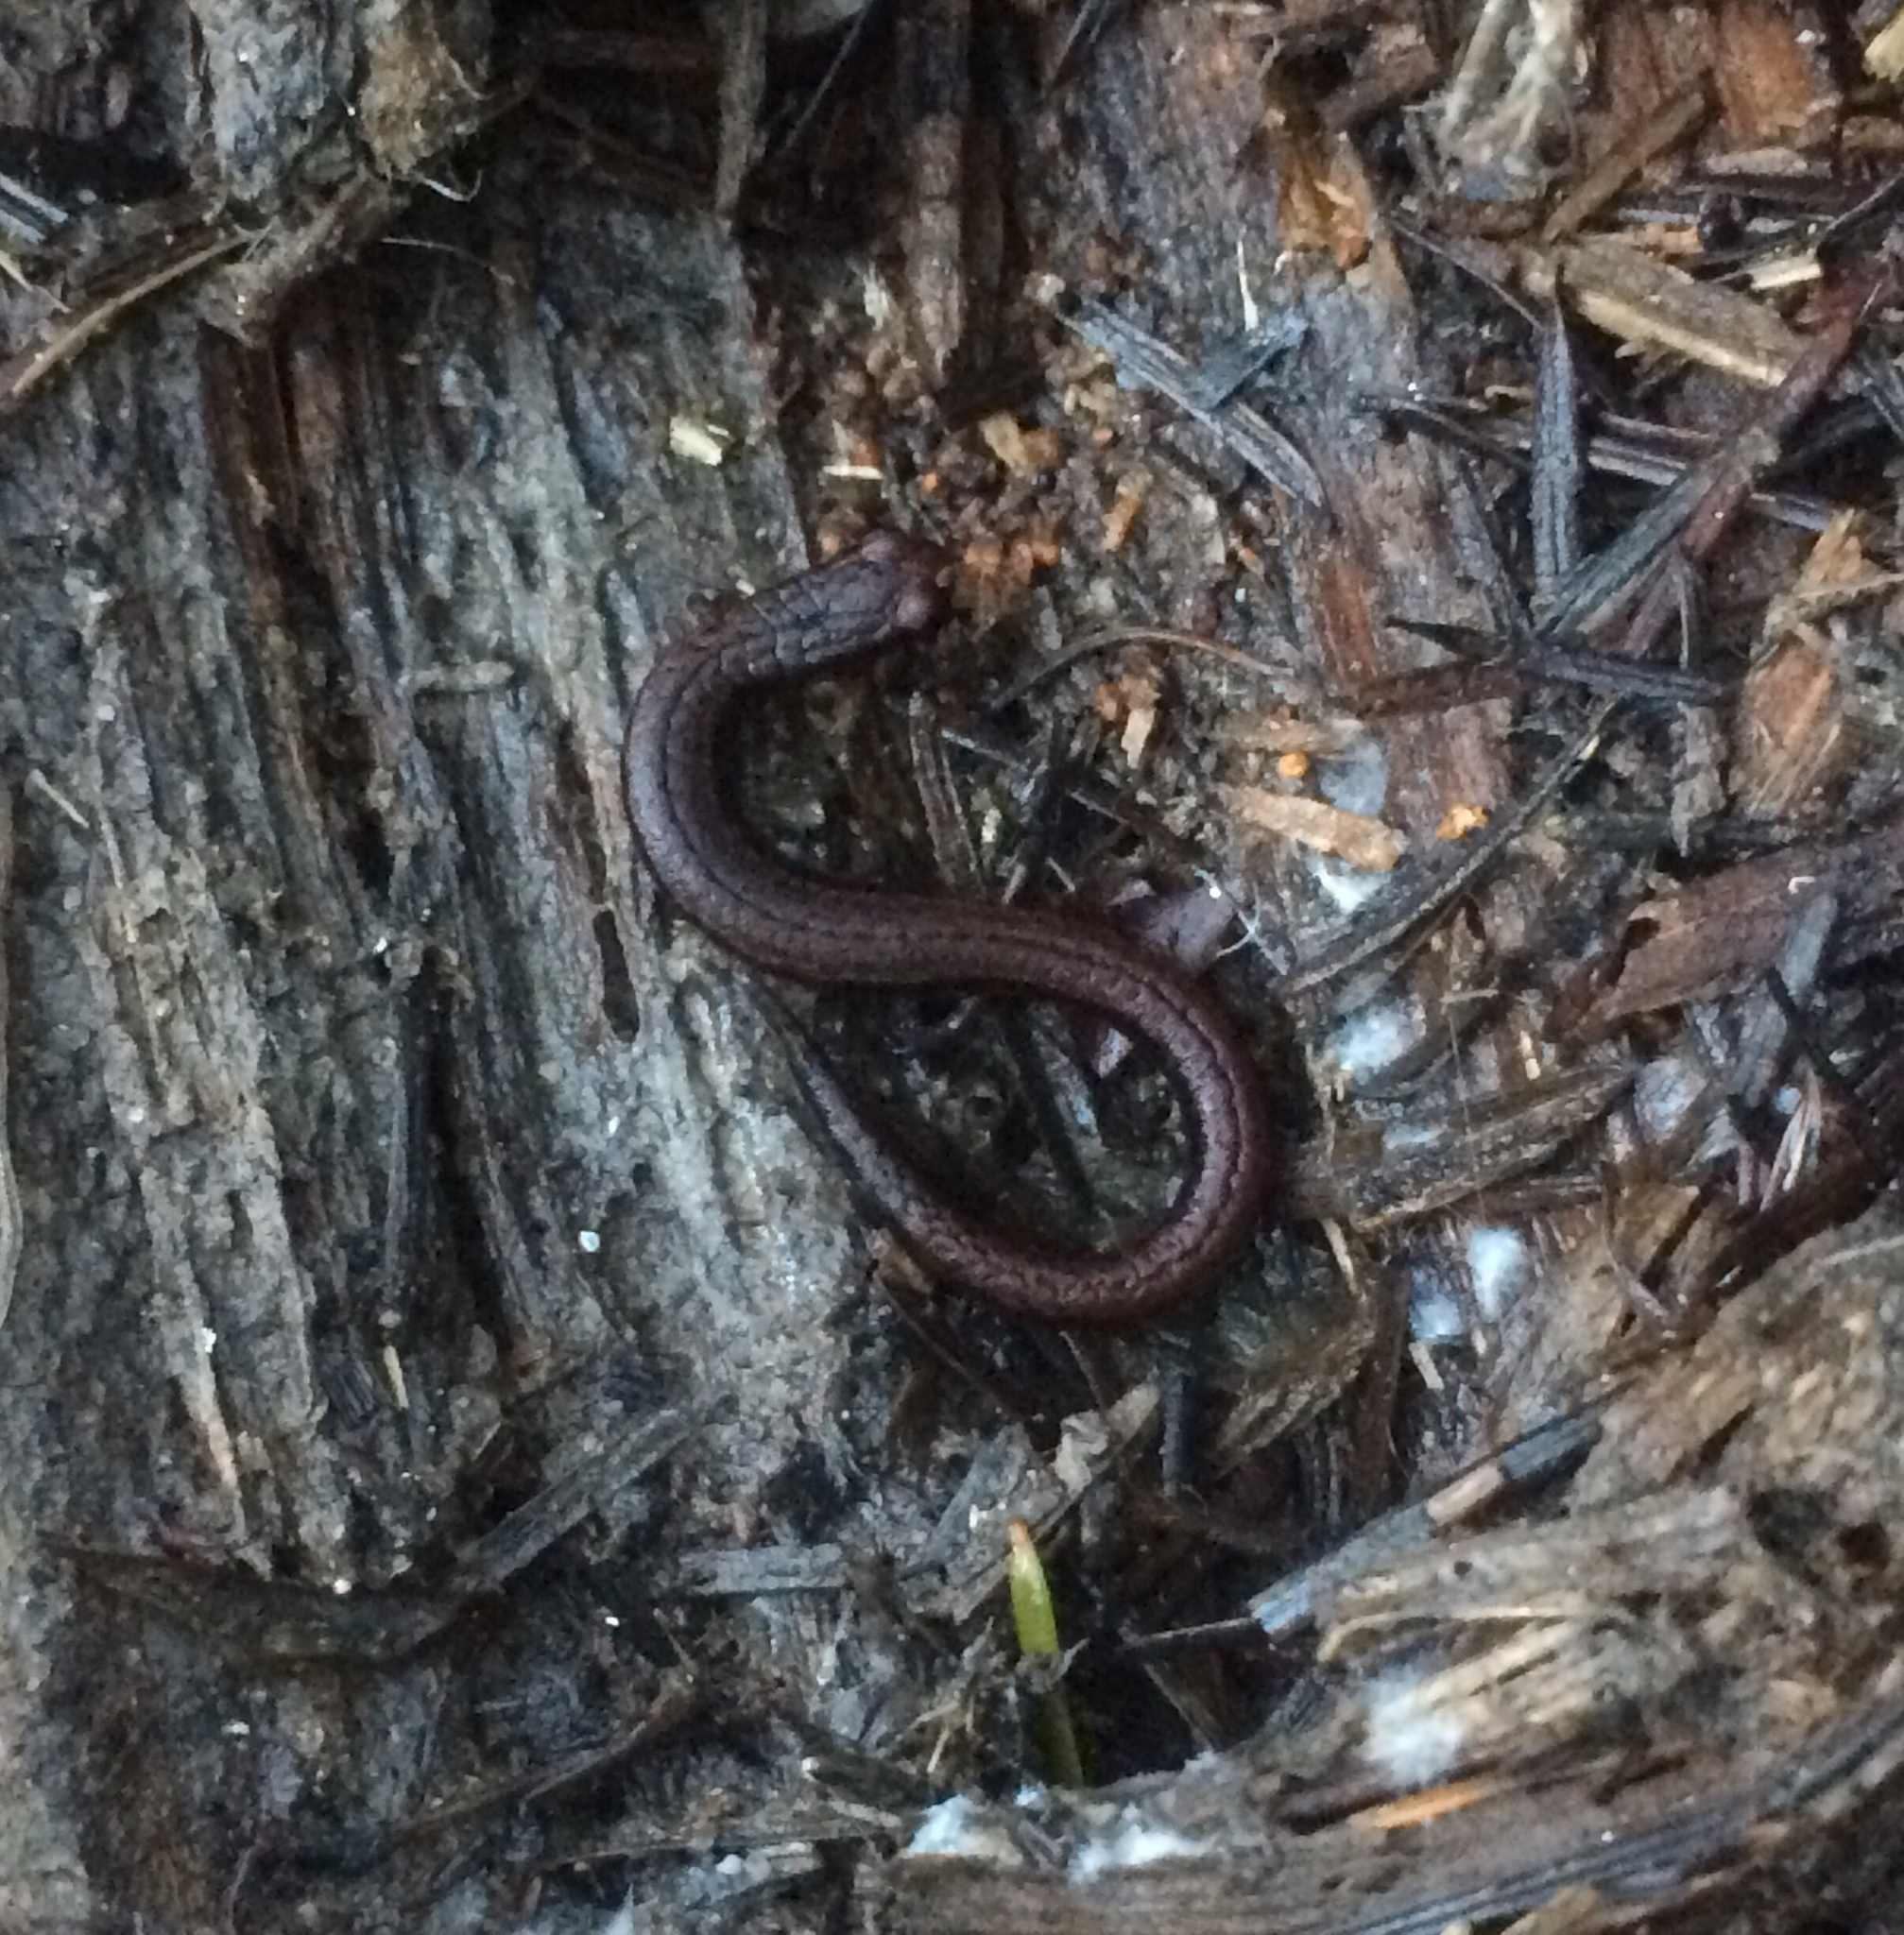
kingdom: Animalia
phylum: Chordata
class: Amphibia
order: Caudata
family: Plethodontidae
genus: Batrachoseps
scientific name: Batrachoseps attenuatus
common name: California slender salamander
